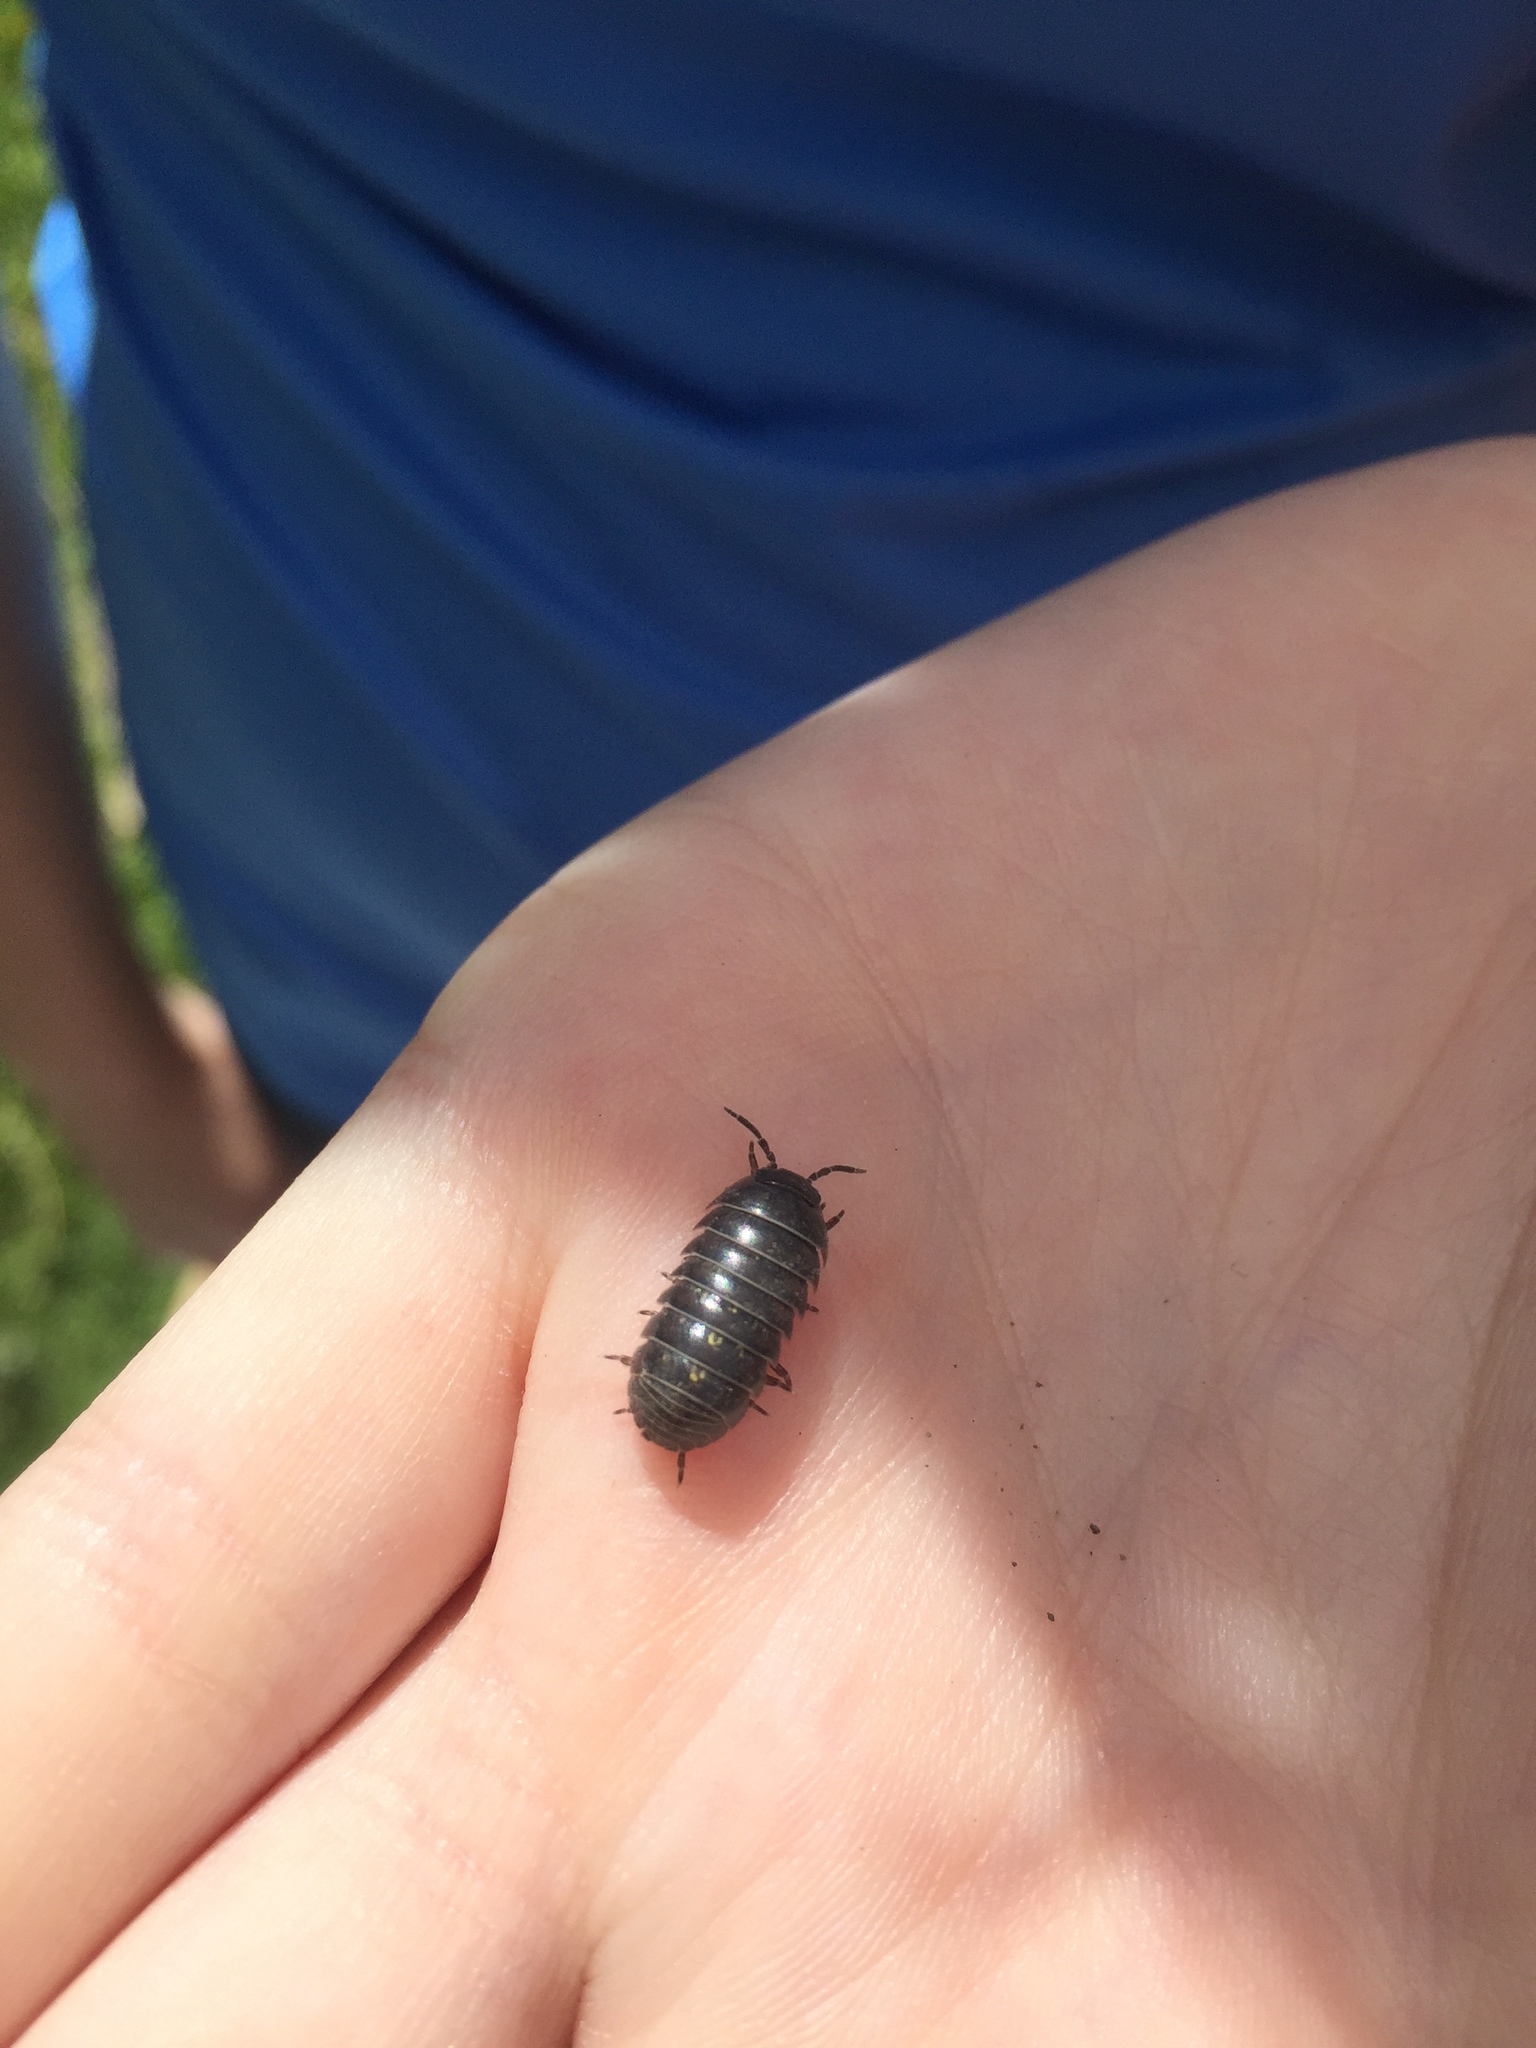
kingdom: Animalia
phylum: Arthropoda
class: Malacostraca
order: Isopoda
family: Armadillidiidae
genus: Armadillidium
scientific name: Armadillidium vulgare
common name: Common pill woodlouse
